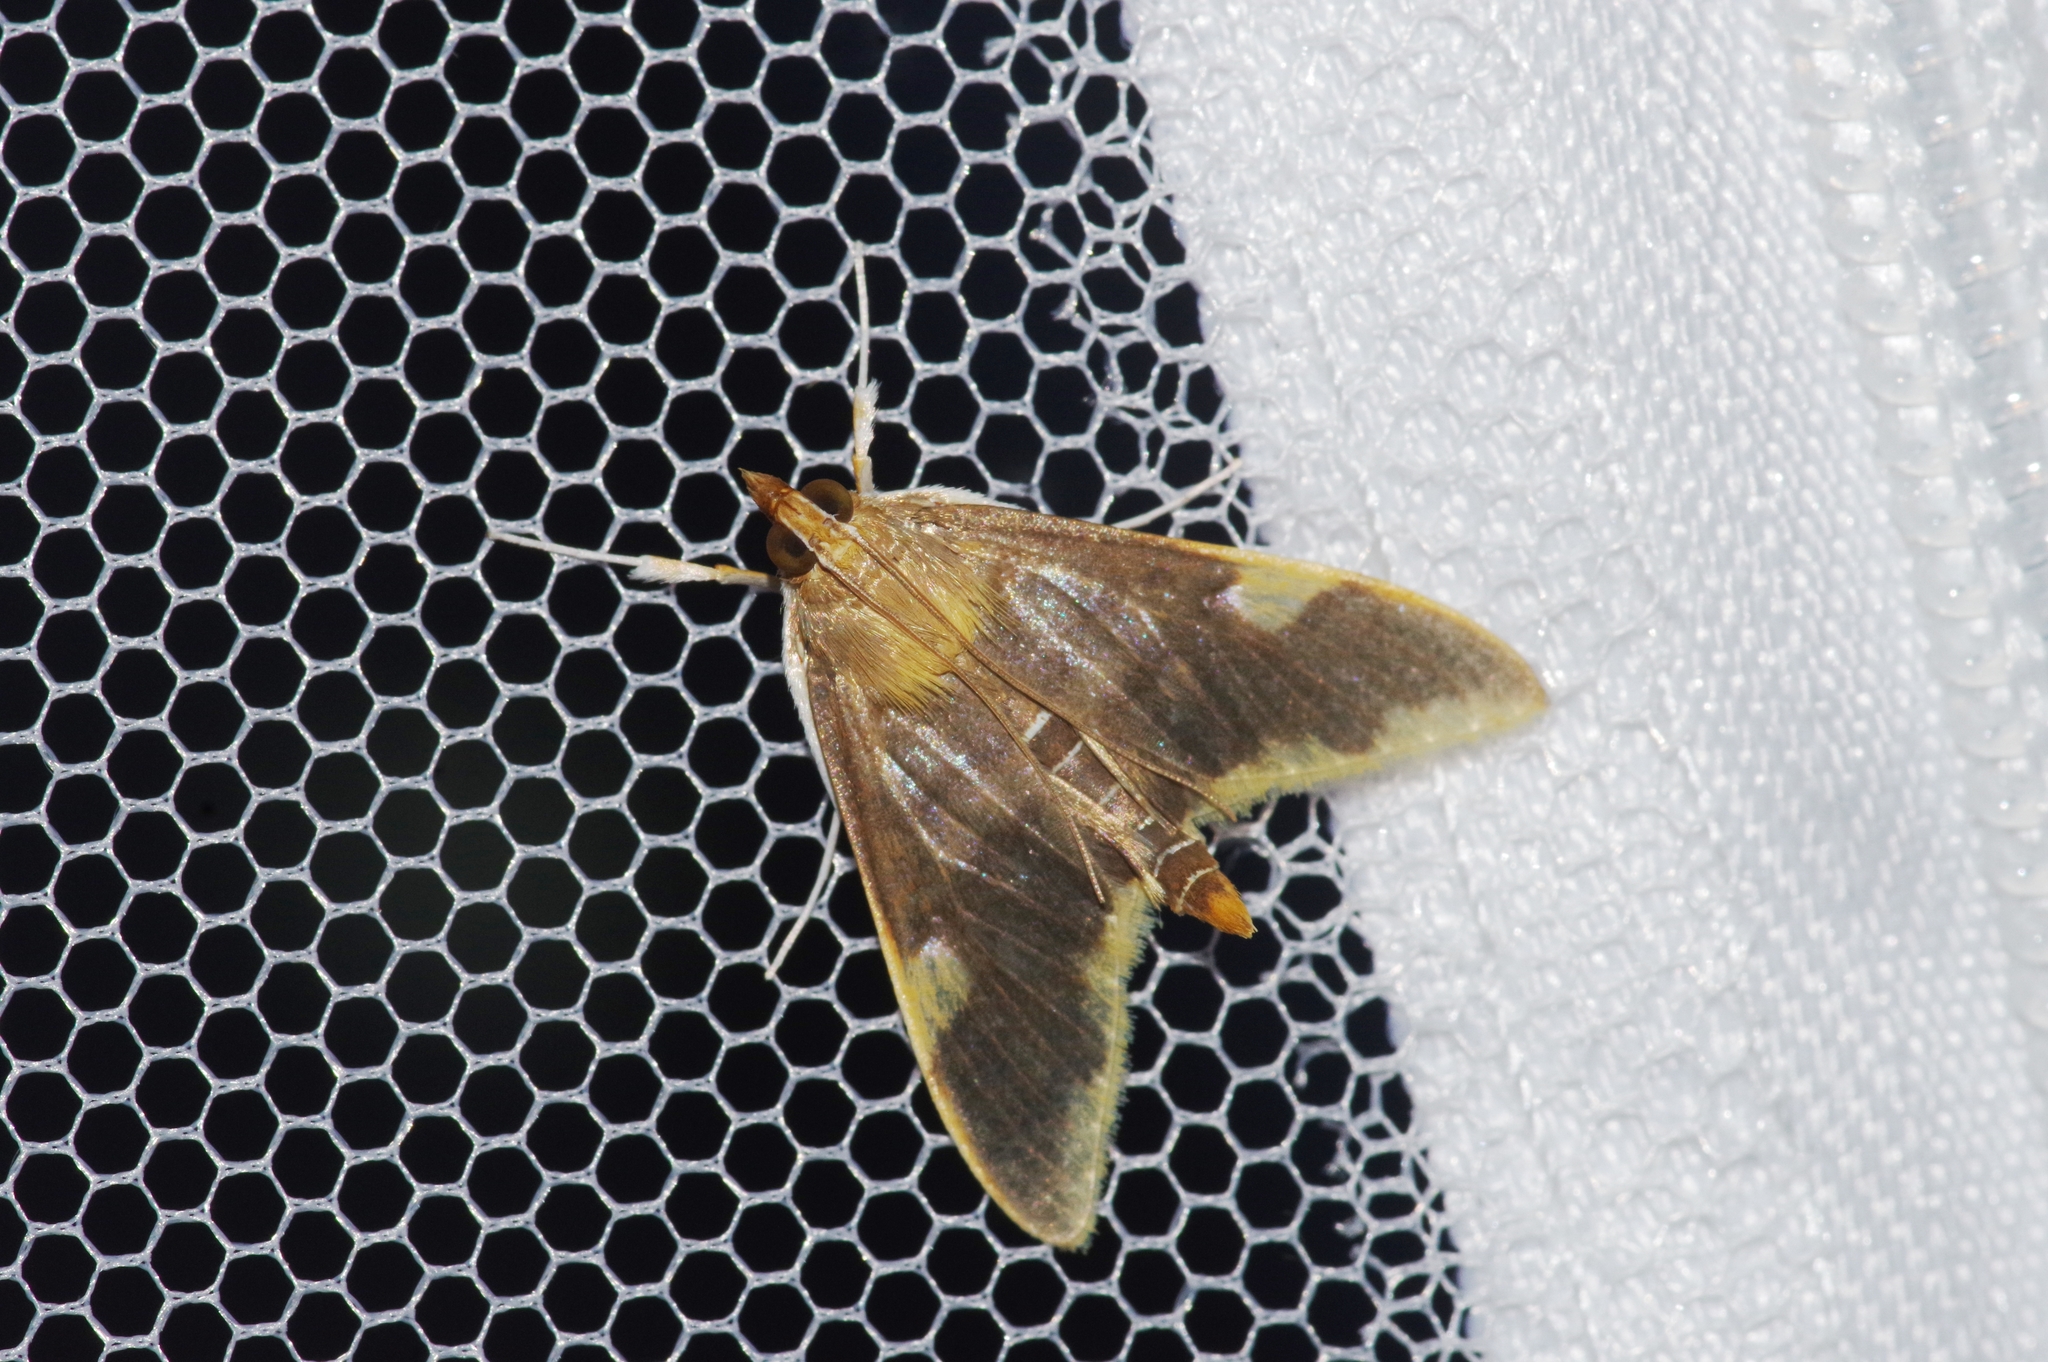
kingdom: Animalia
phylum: Arthropoda
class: Insecta
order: Lepidoptera
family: Crambidae
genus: Crocidophora
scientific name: Crocidophora butleri
